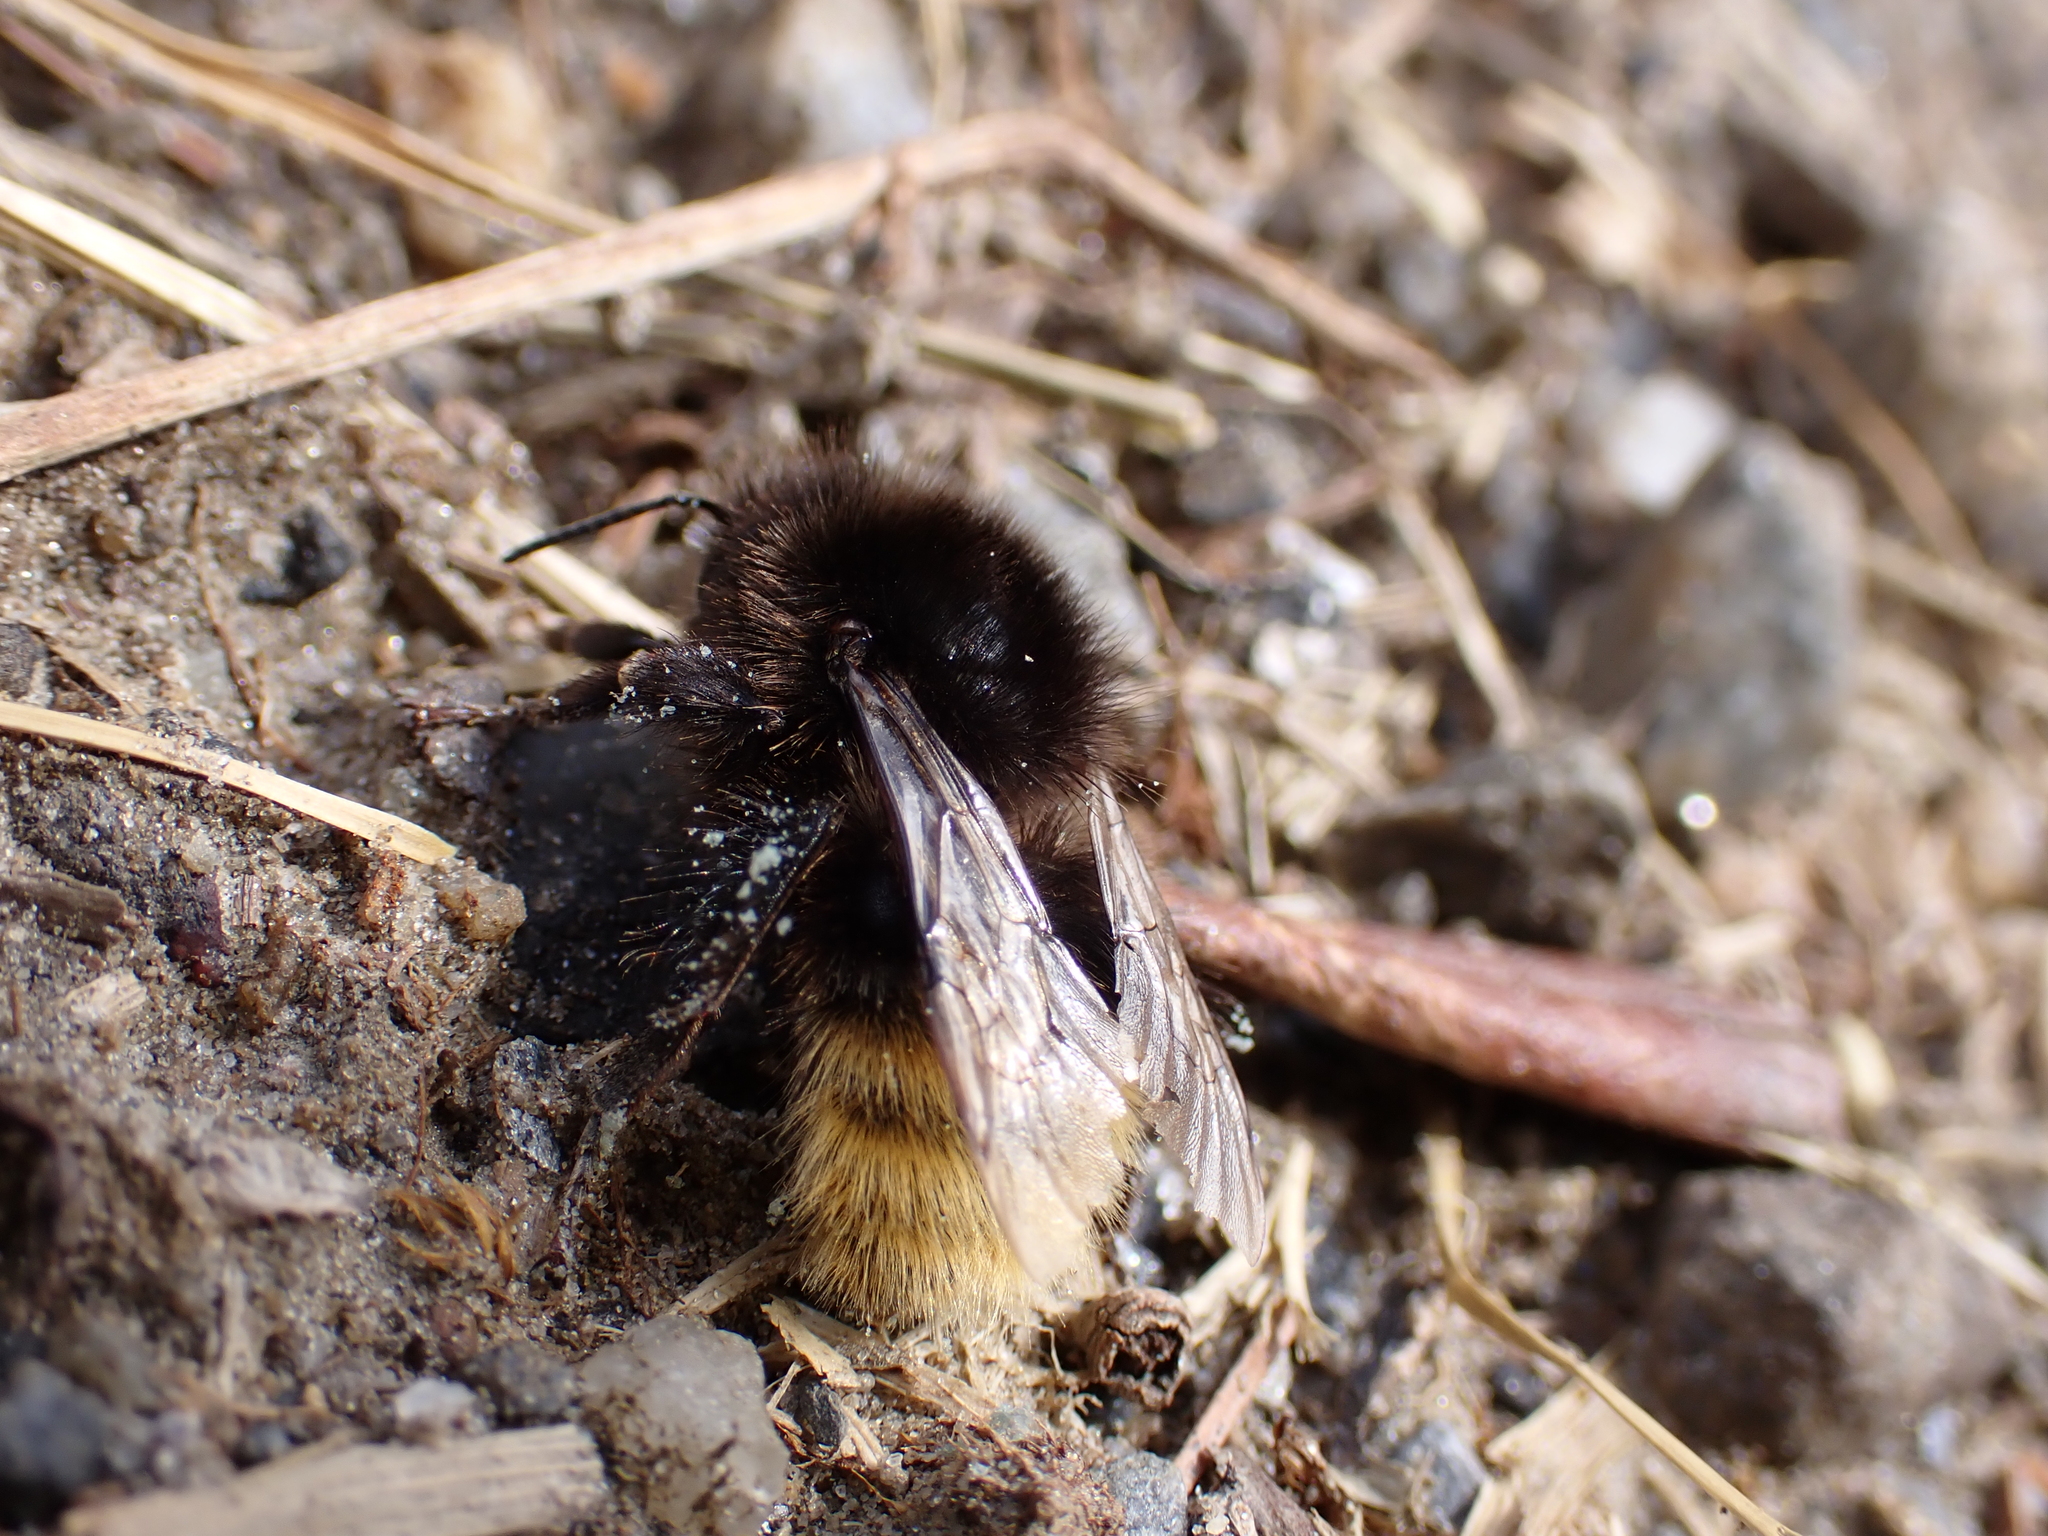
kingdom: Animalia
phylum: Arthropoda
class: Insecta
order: Hymenoptera
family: Apidae
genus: Bombus
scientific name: Bombus wurflenii
